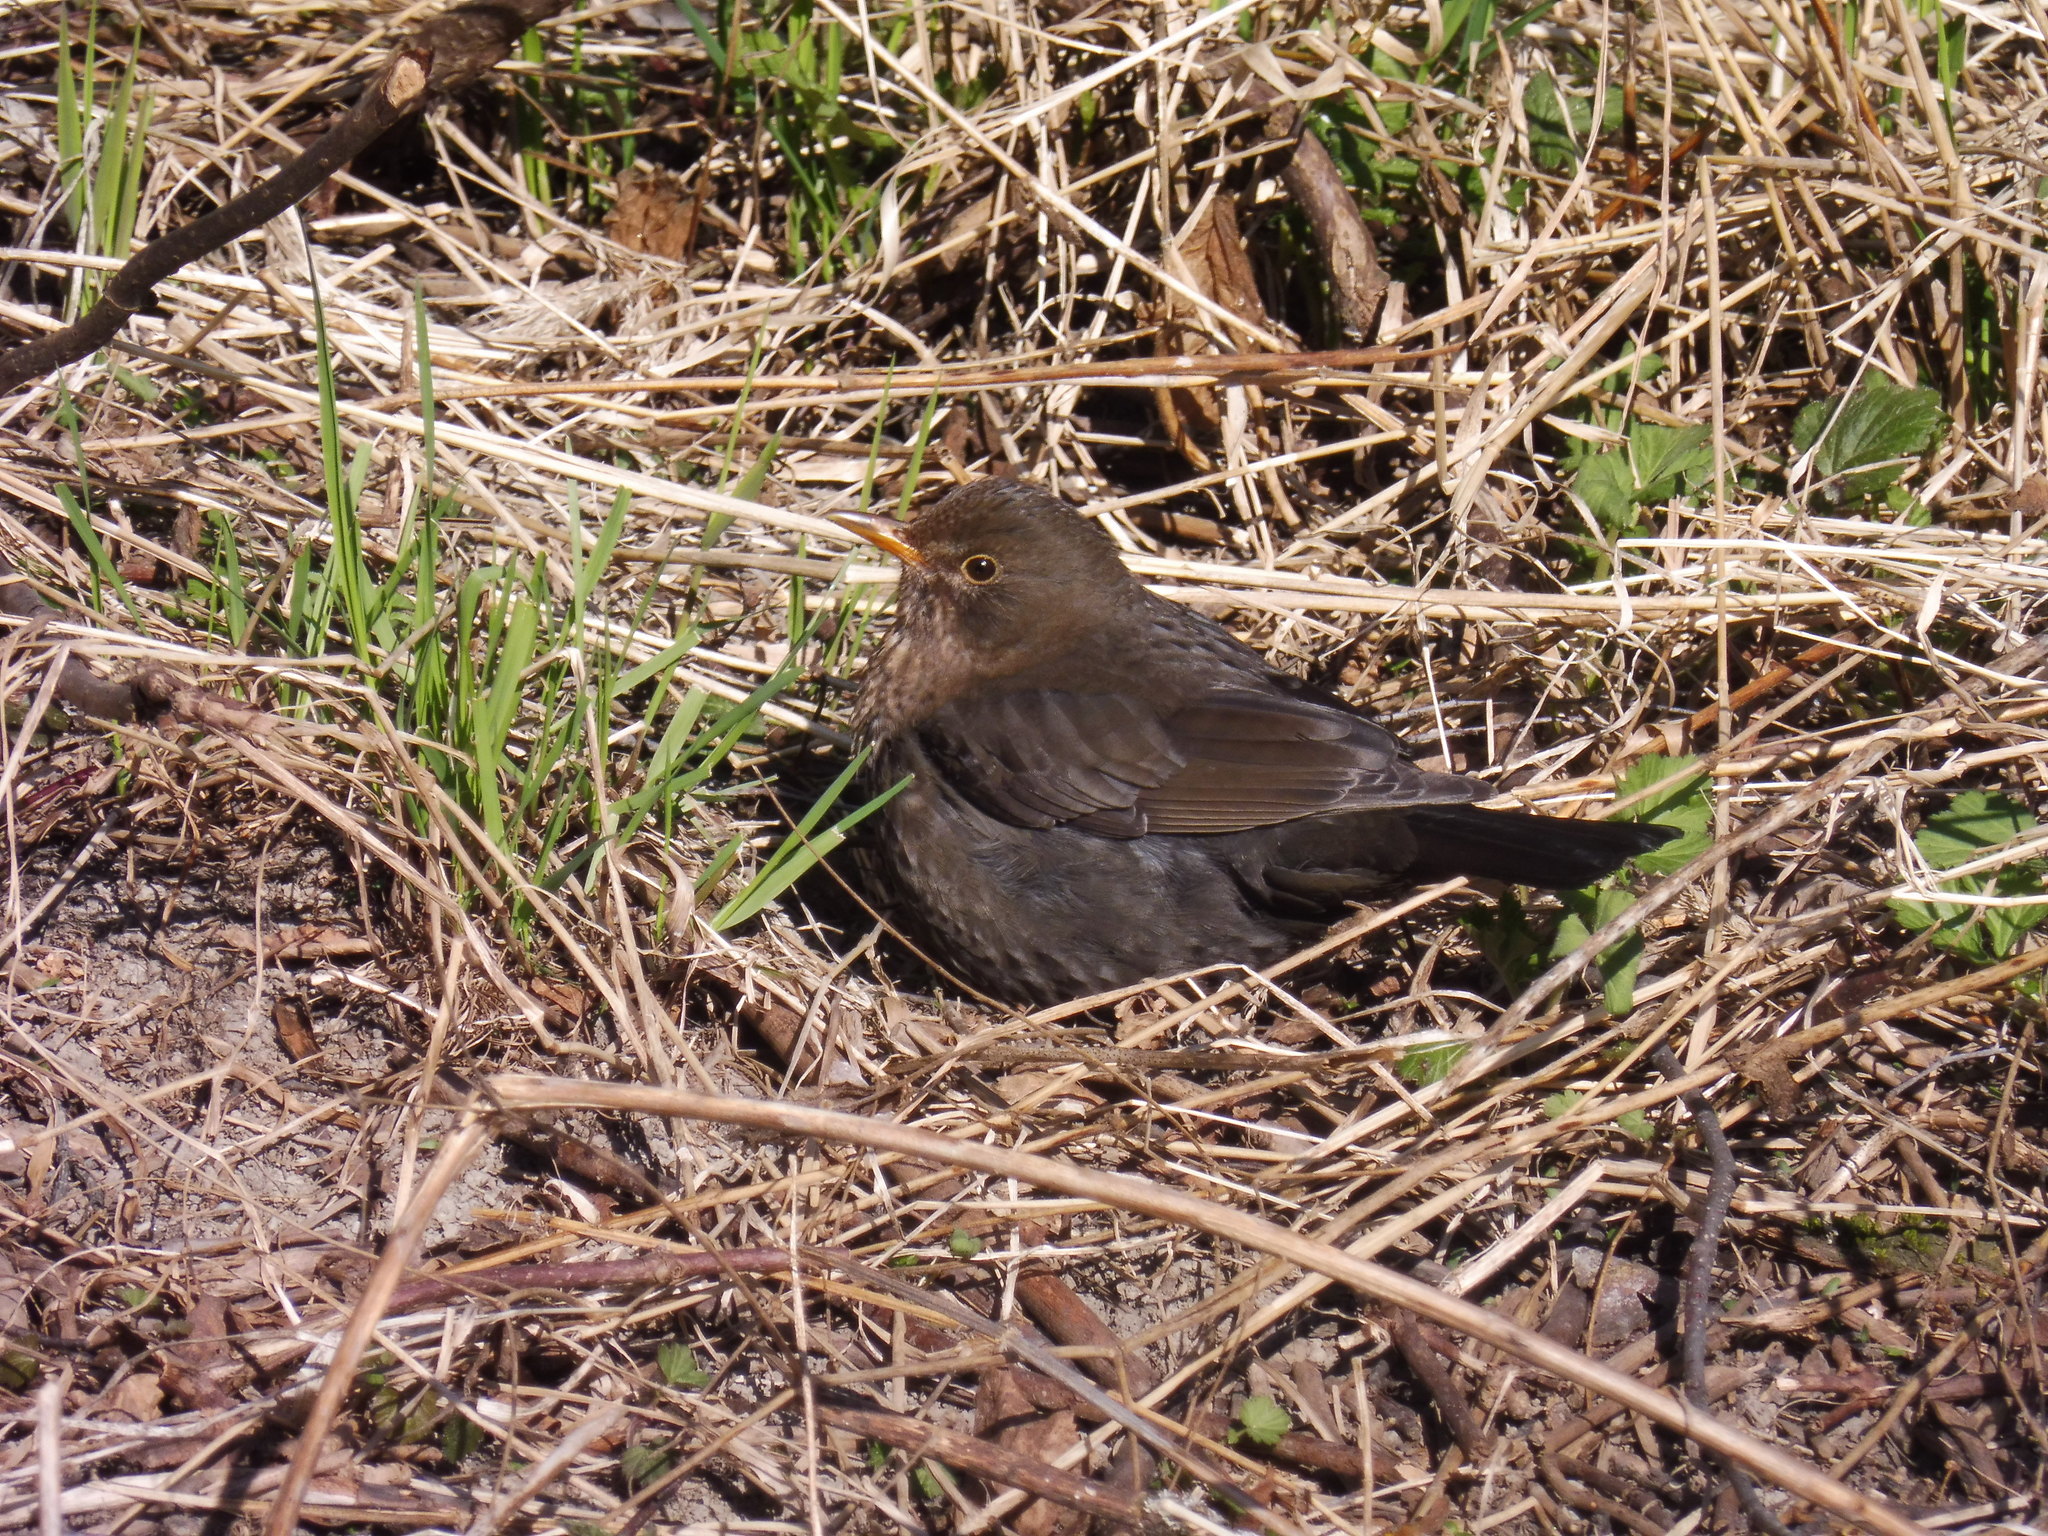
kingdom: Animalia
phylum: Chordata
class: Aves
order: Passeriformes
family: Turdidae
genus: Turdus
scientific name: Turdus merula
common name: Common blackbird
